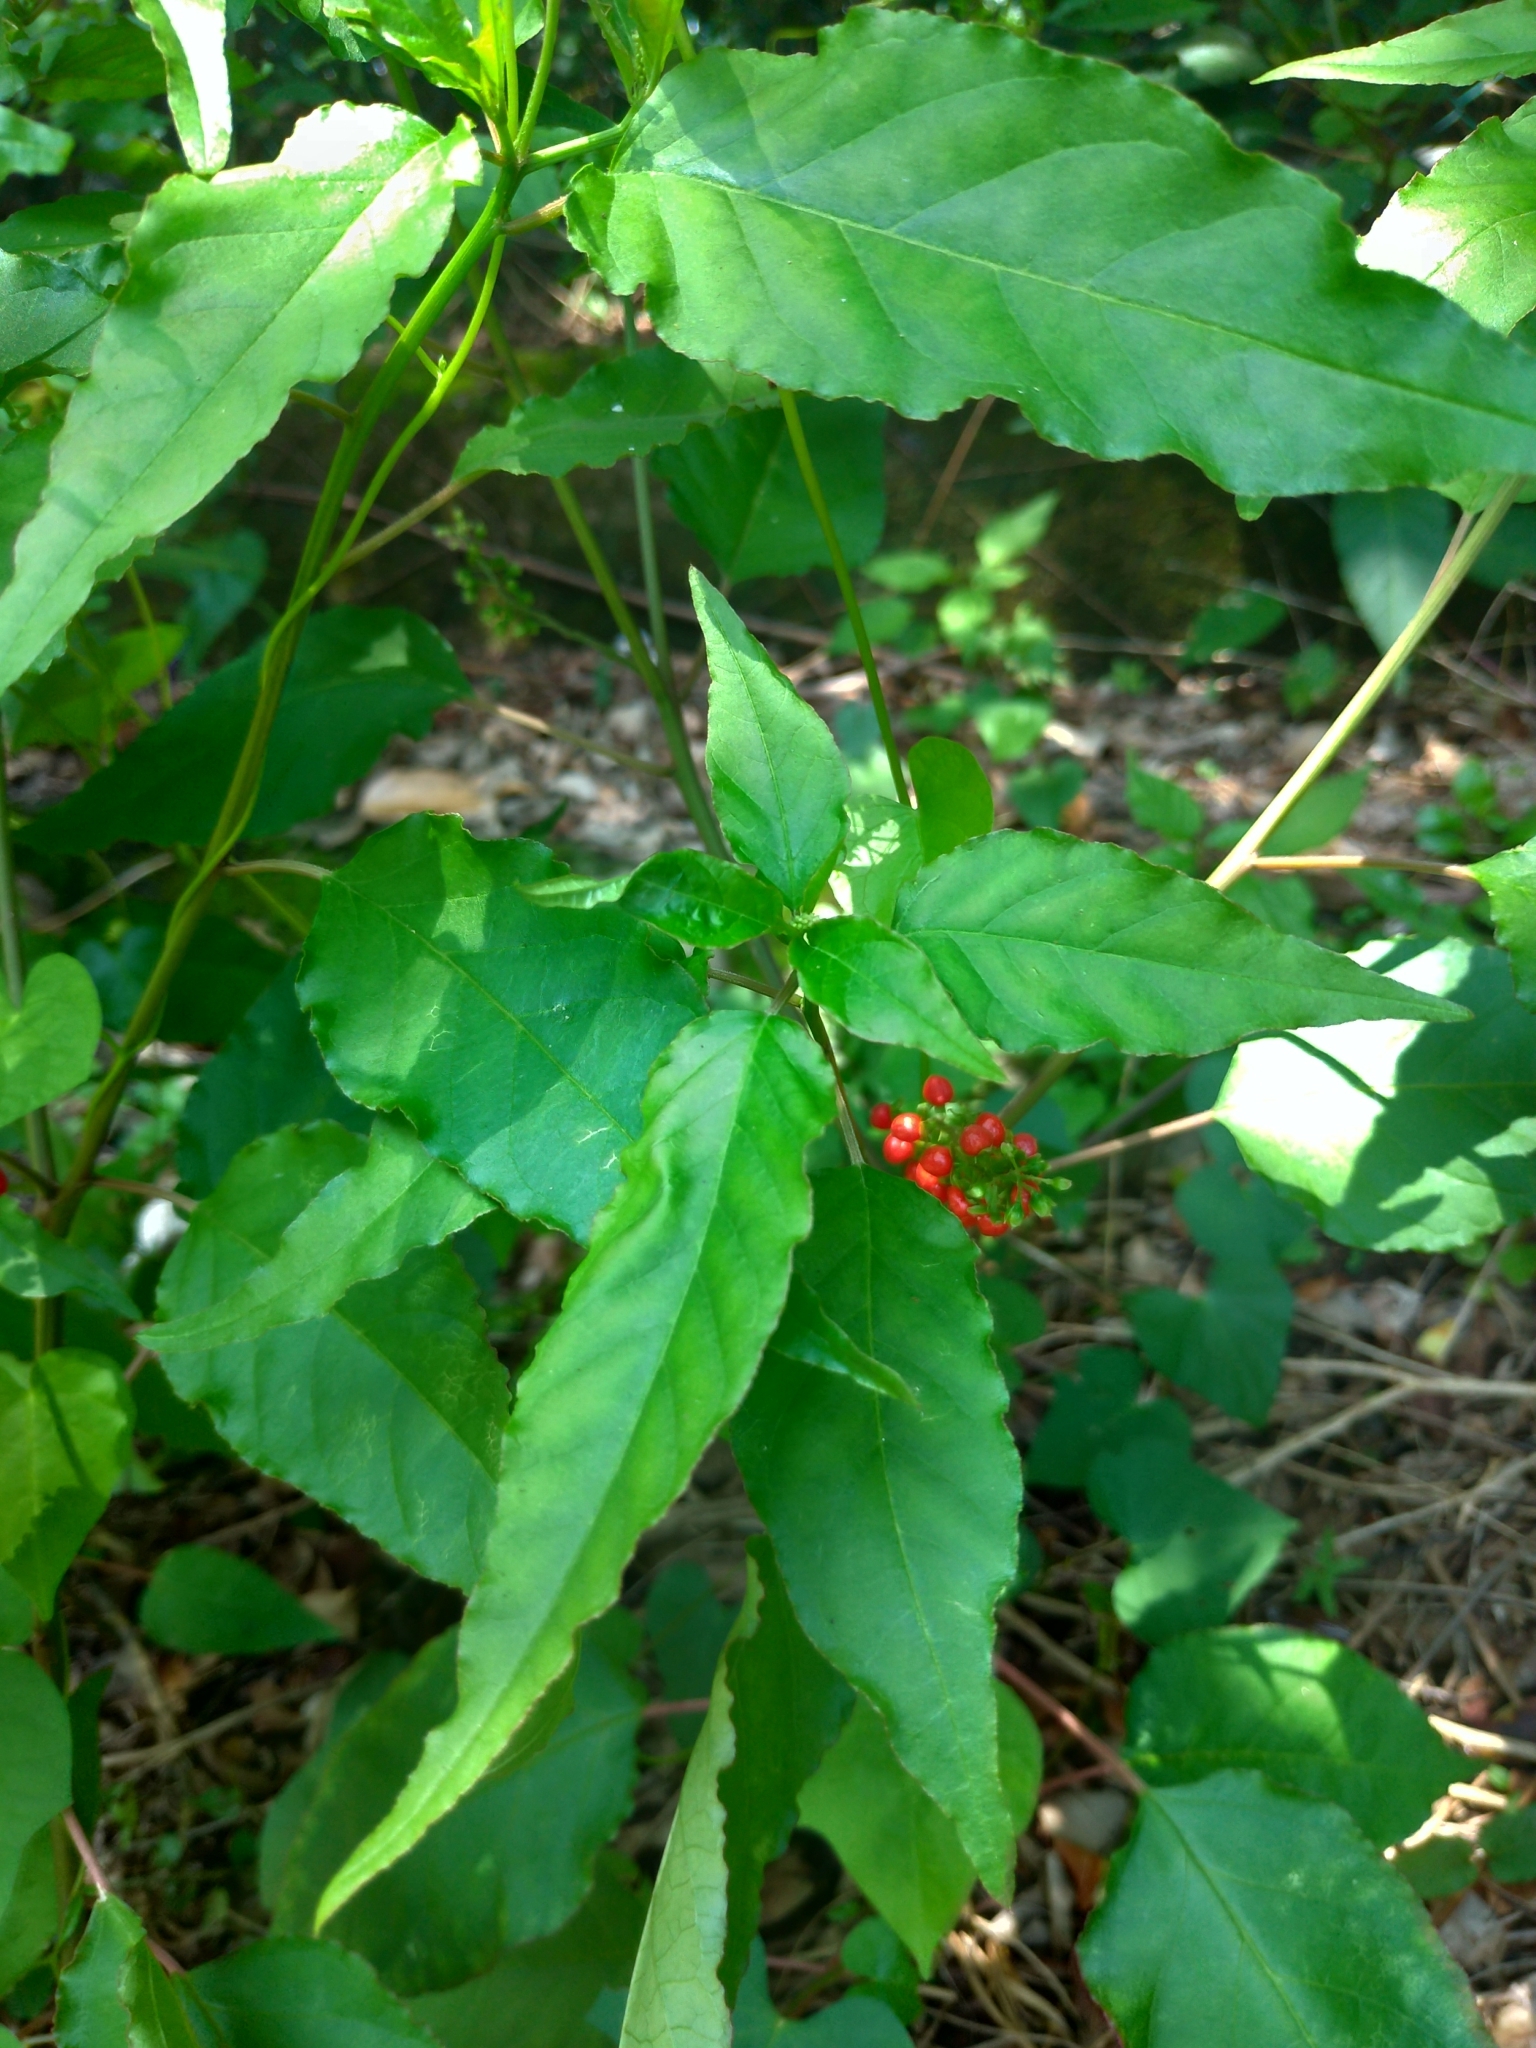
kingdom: Plantae
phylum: Tracheophyta
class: Magnoliopsida
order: Caryophyllales
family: Phytolaccaceae
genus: Rivina
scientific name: Rivina humilis
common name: Rougeplant
